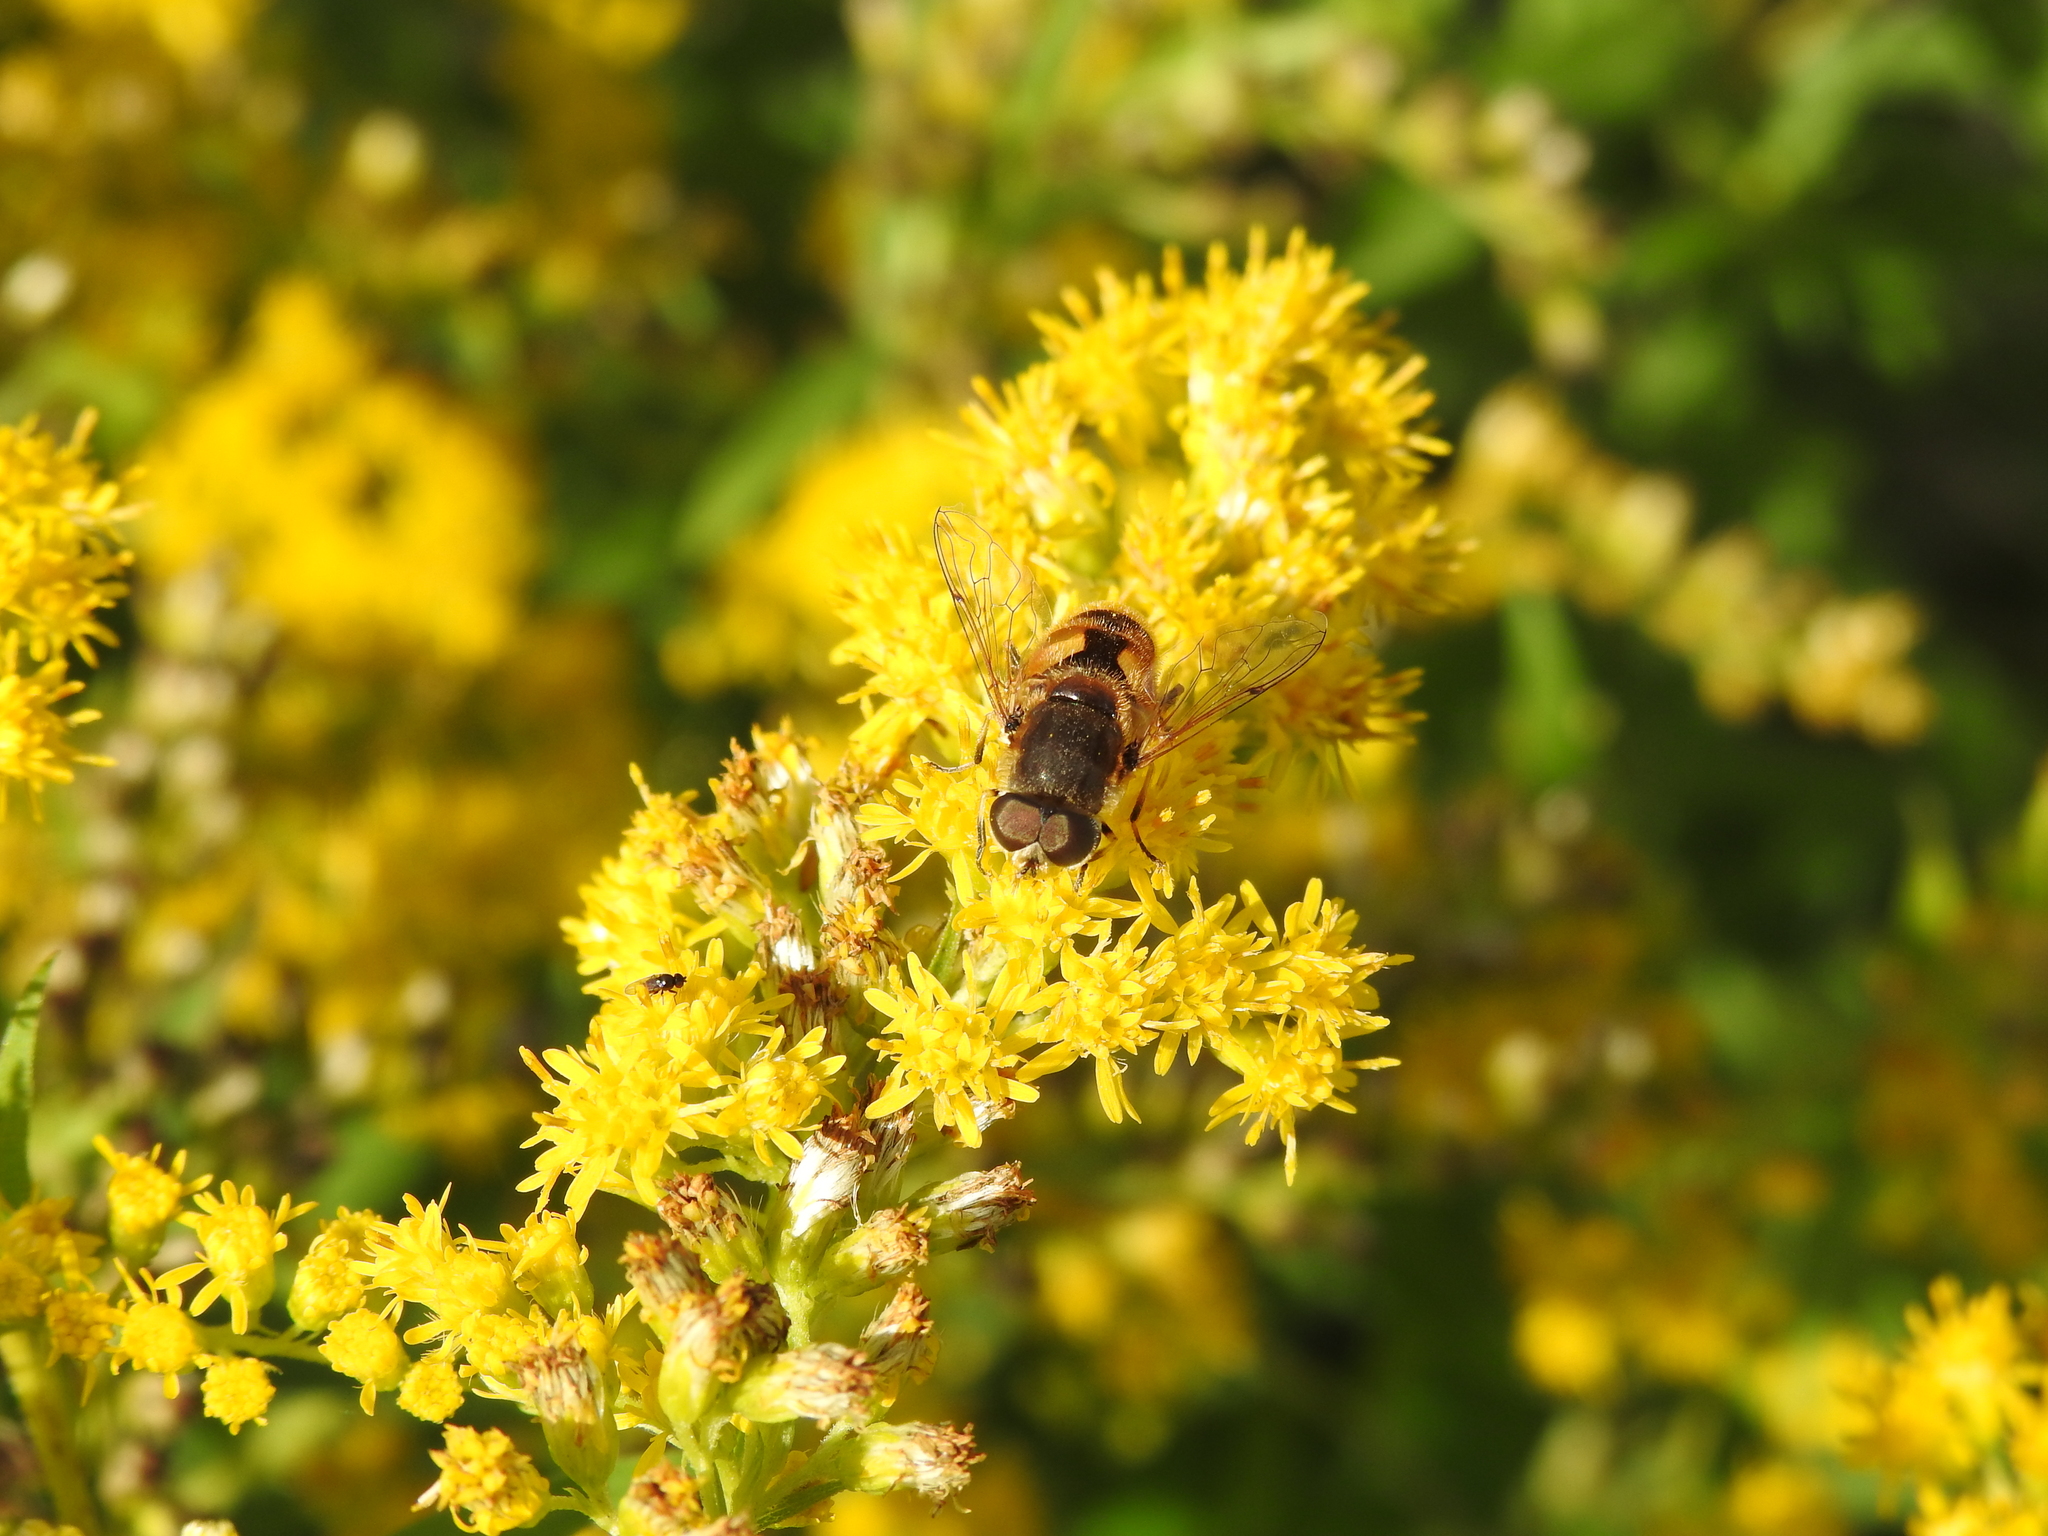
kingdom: Animalia
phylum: Arthropoda
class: Insecta
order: Diptera
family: Syrphidae
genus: Eristalis
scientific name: Eristalis arbustorum
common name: Hover fly
